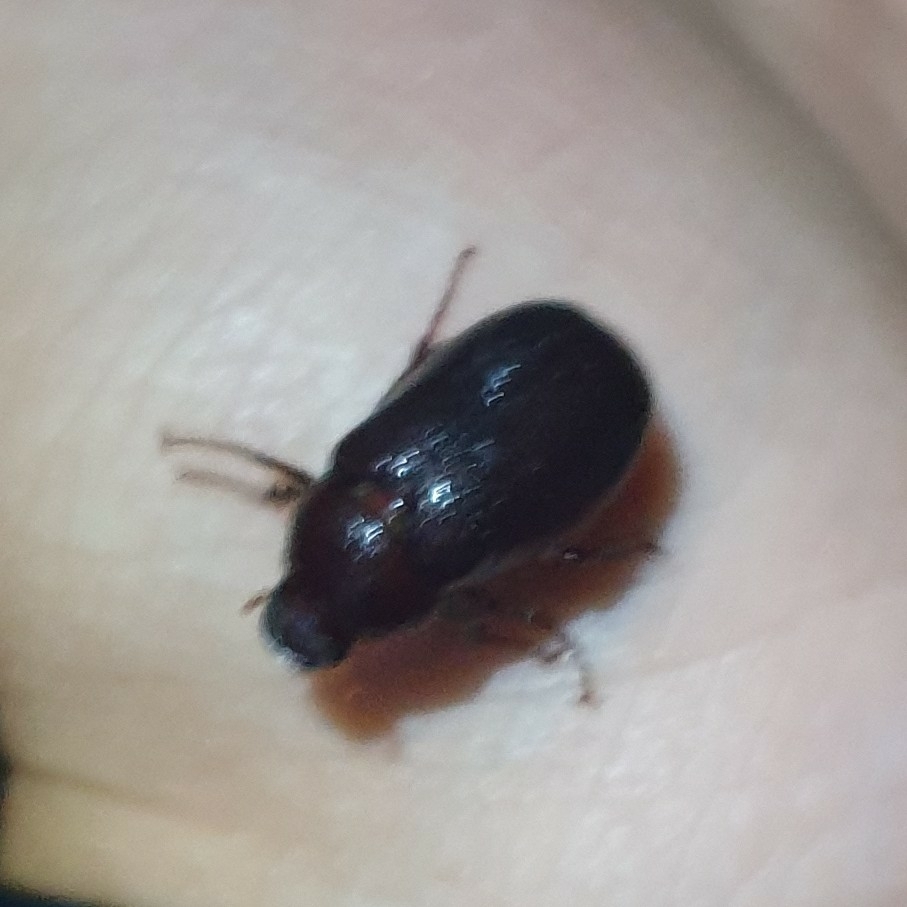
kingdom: Animalia
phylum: Arthropoda
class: Insecta
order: Coleoptera
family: Scarabaeidae
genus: Aplidia
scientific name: Aplidia transversa
